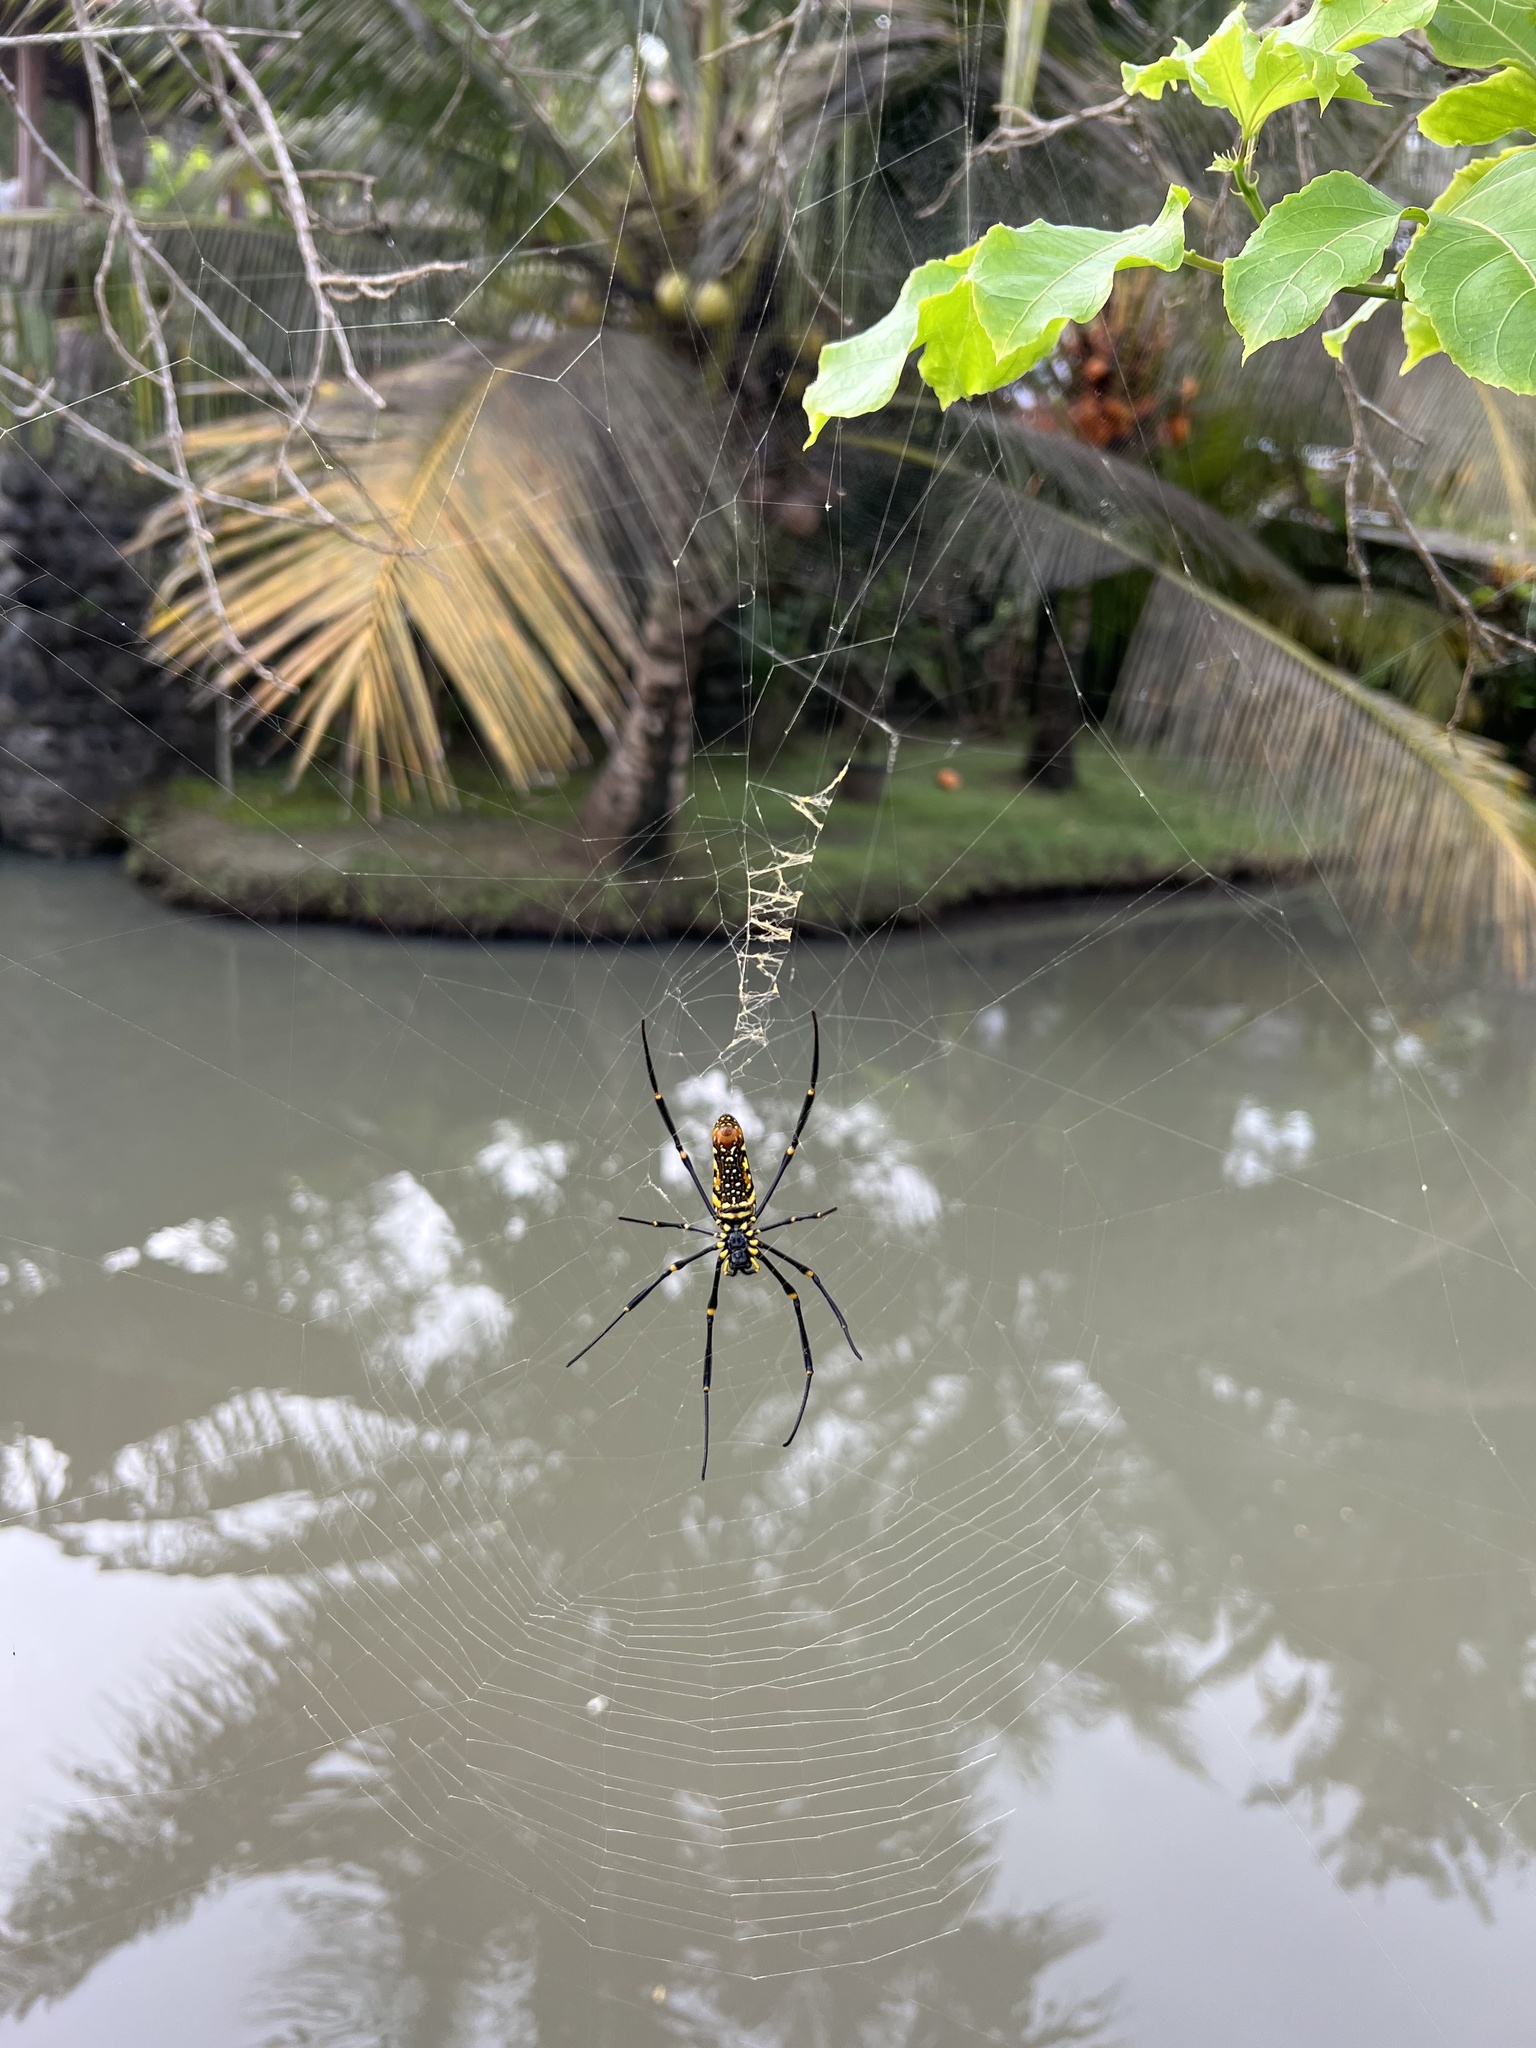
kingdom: Animalia
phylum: Arthropoda
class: Arachnida
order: Araneae
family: Araneidae
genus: Nephila
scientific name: Nephila pilipes
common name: Giant golden orb weaver
